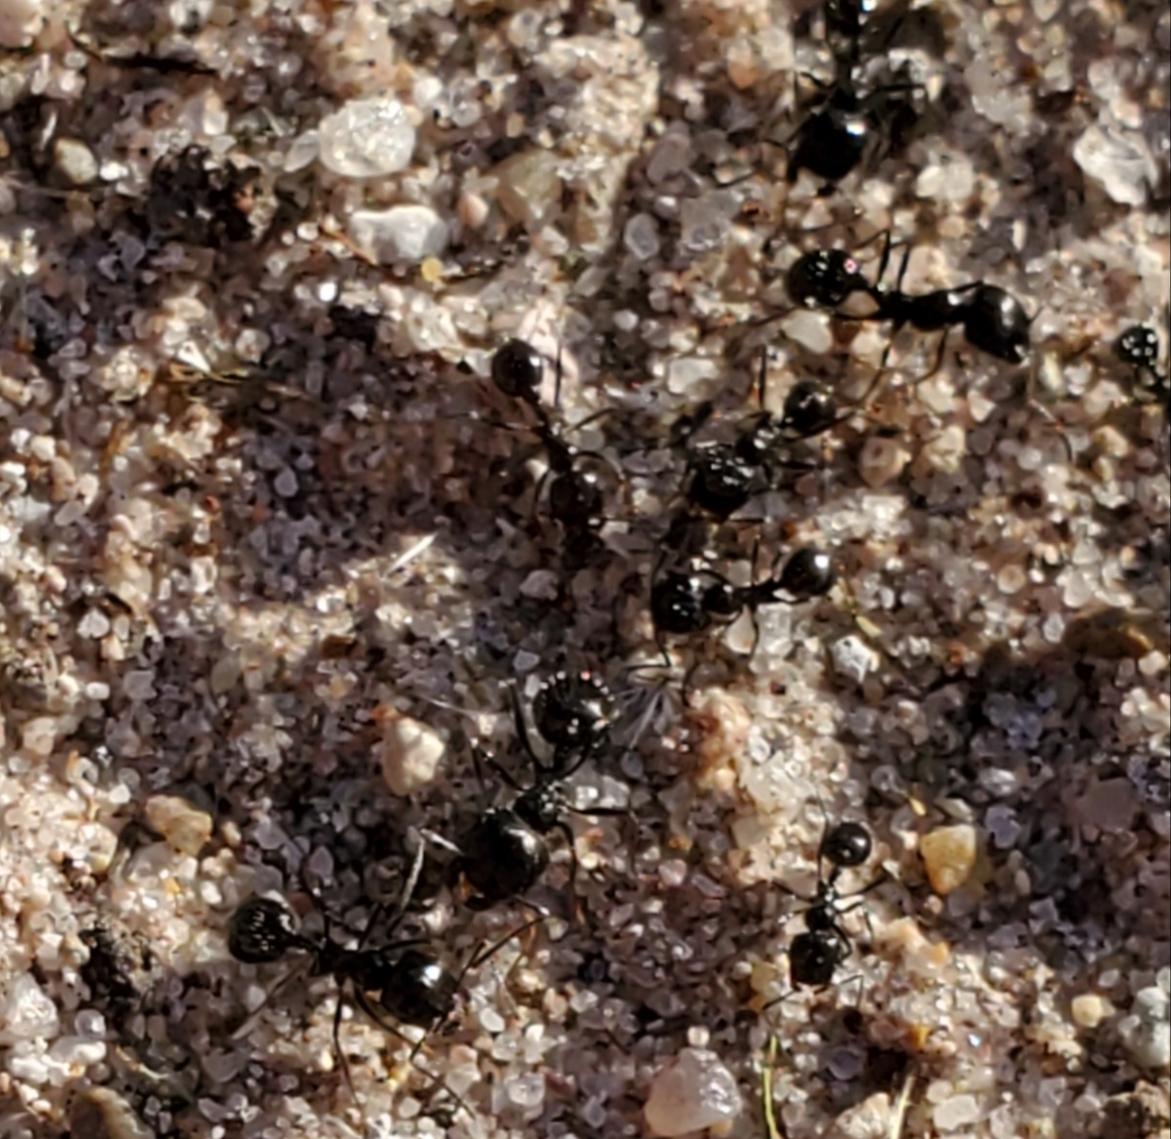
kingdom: Animalia
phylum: Arthropoda
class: Insecta
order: Hymenoptera
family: Formicidae
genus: Messor
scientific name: Messor pergandei
